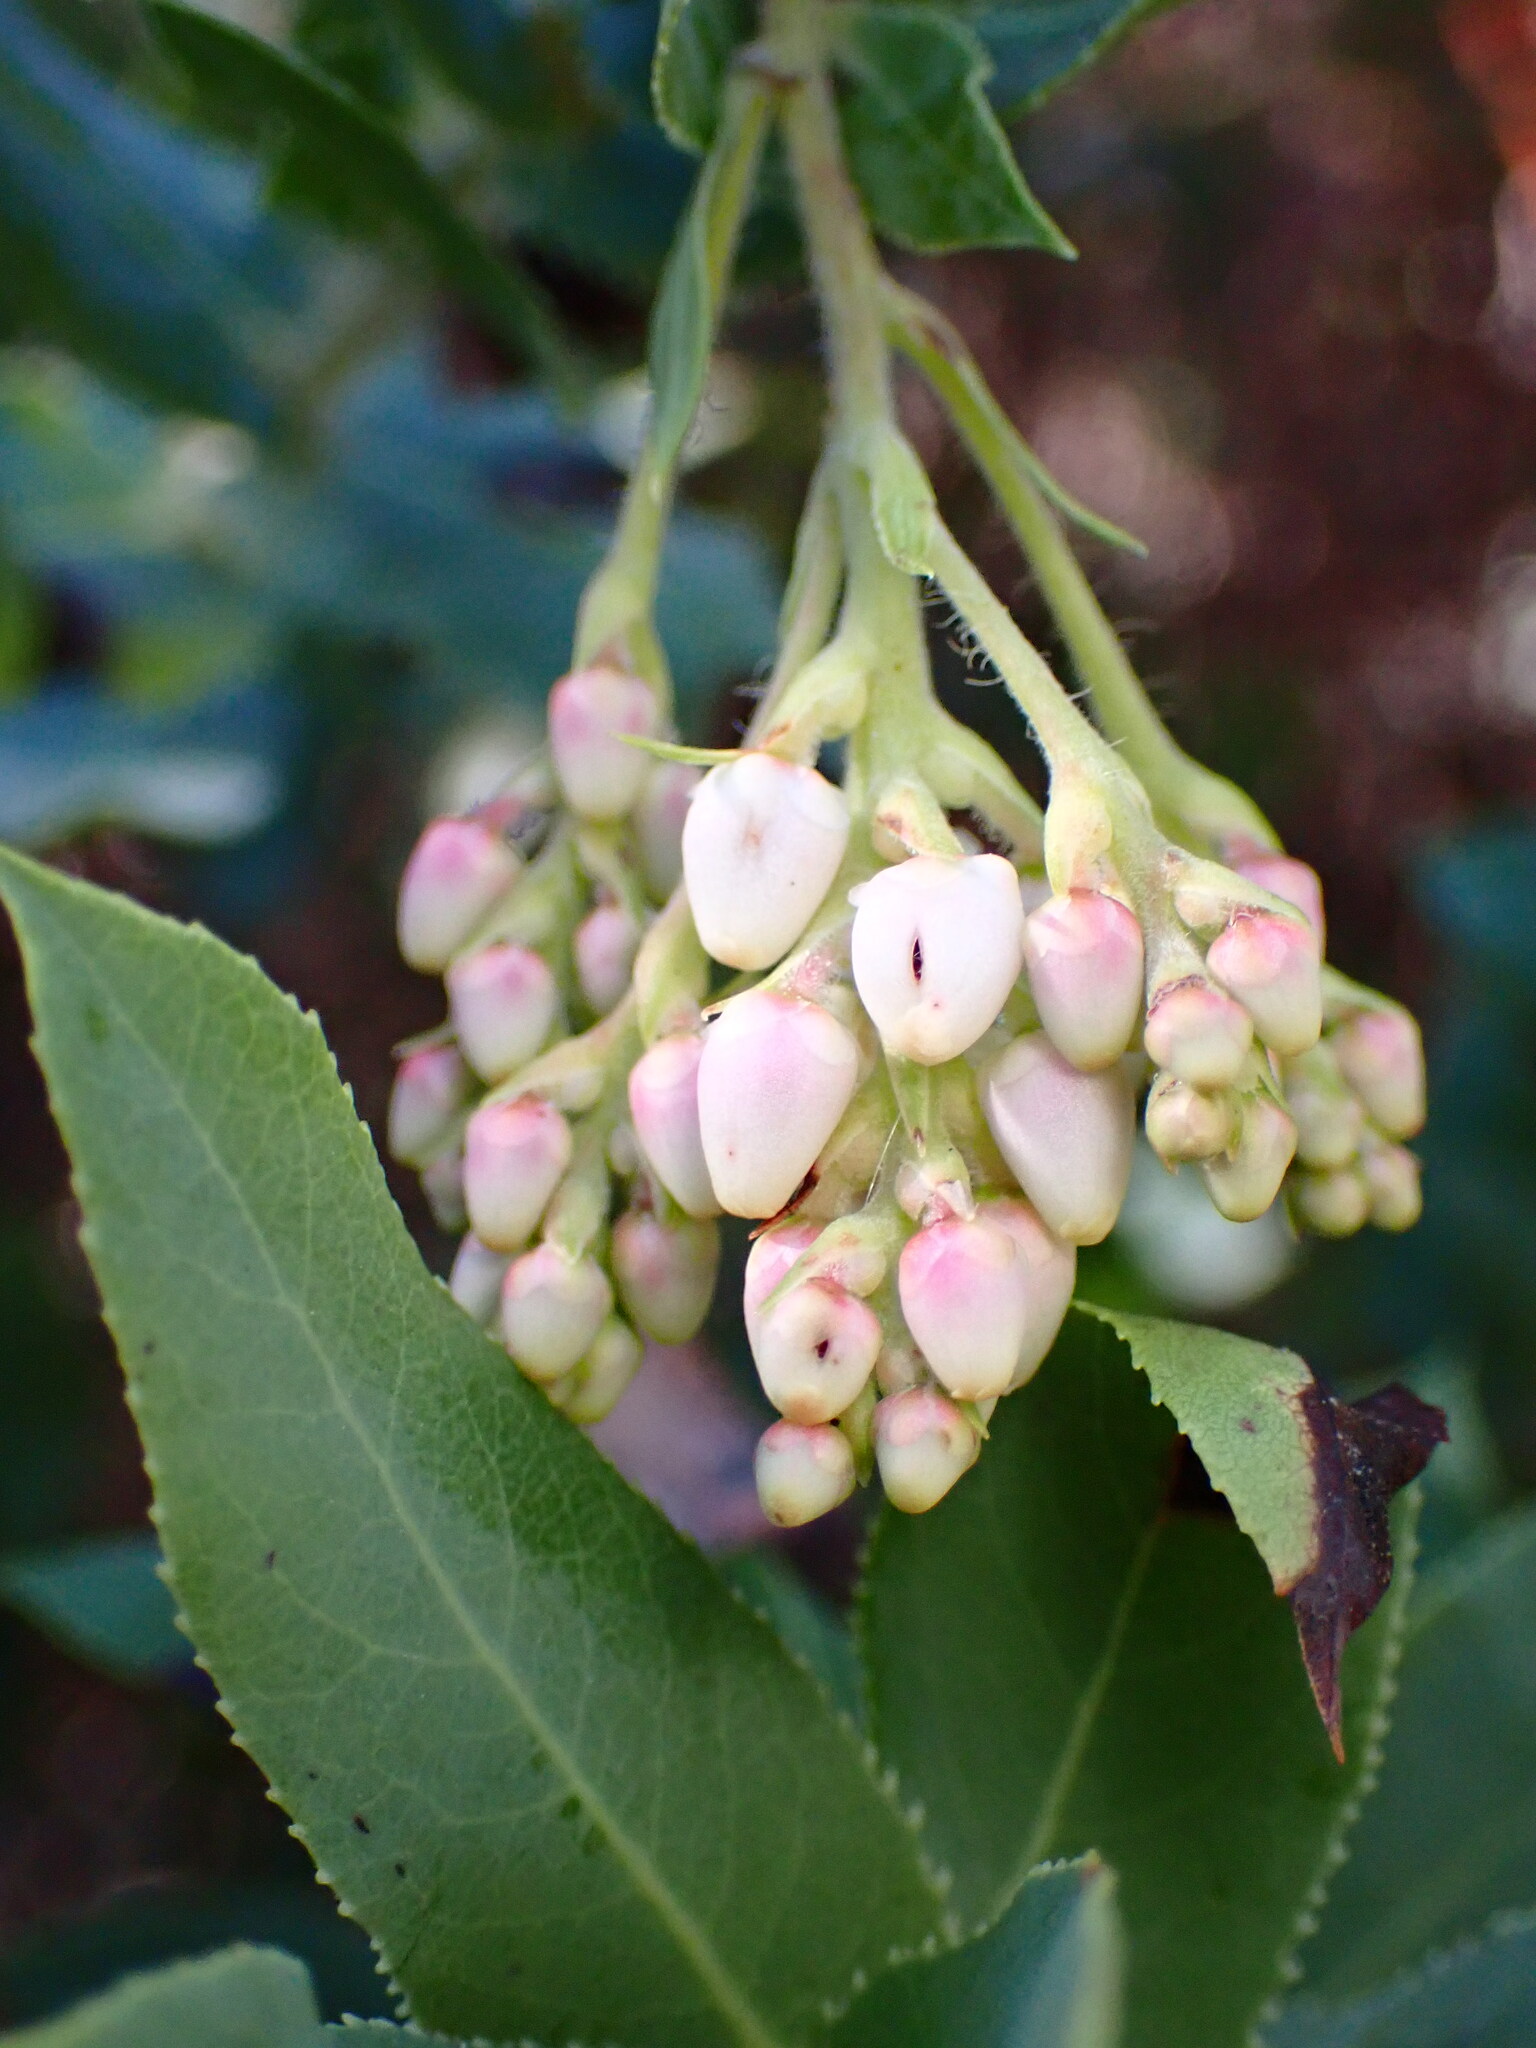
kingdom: Plantae
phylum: Tracheophyta
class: Magnoliopsida
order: Ericales
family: Ericaceae
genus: Arctostaphylos
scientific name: Arctostaphylos andersonii
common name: Santa cruz manzanita
